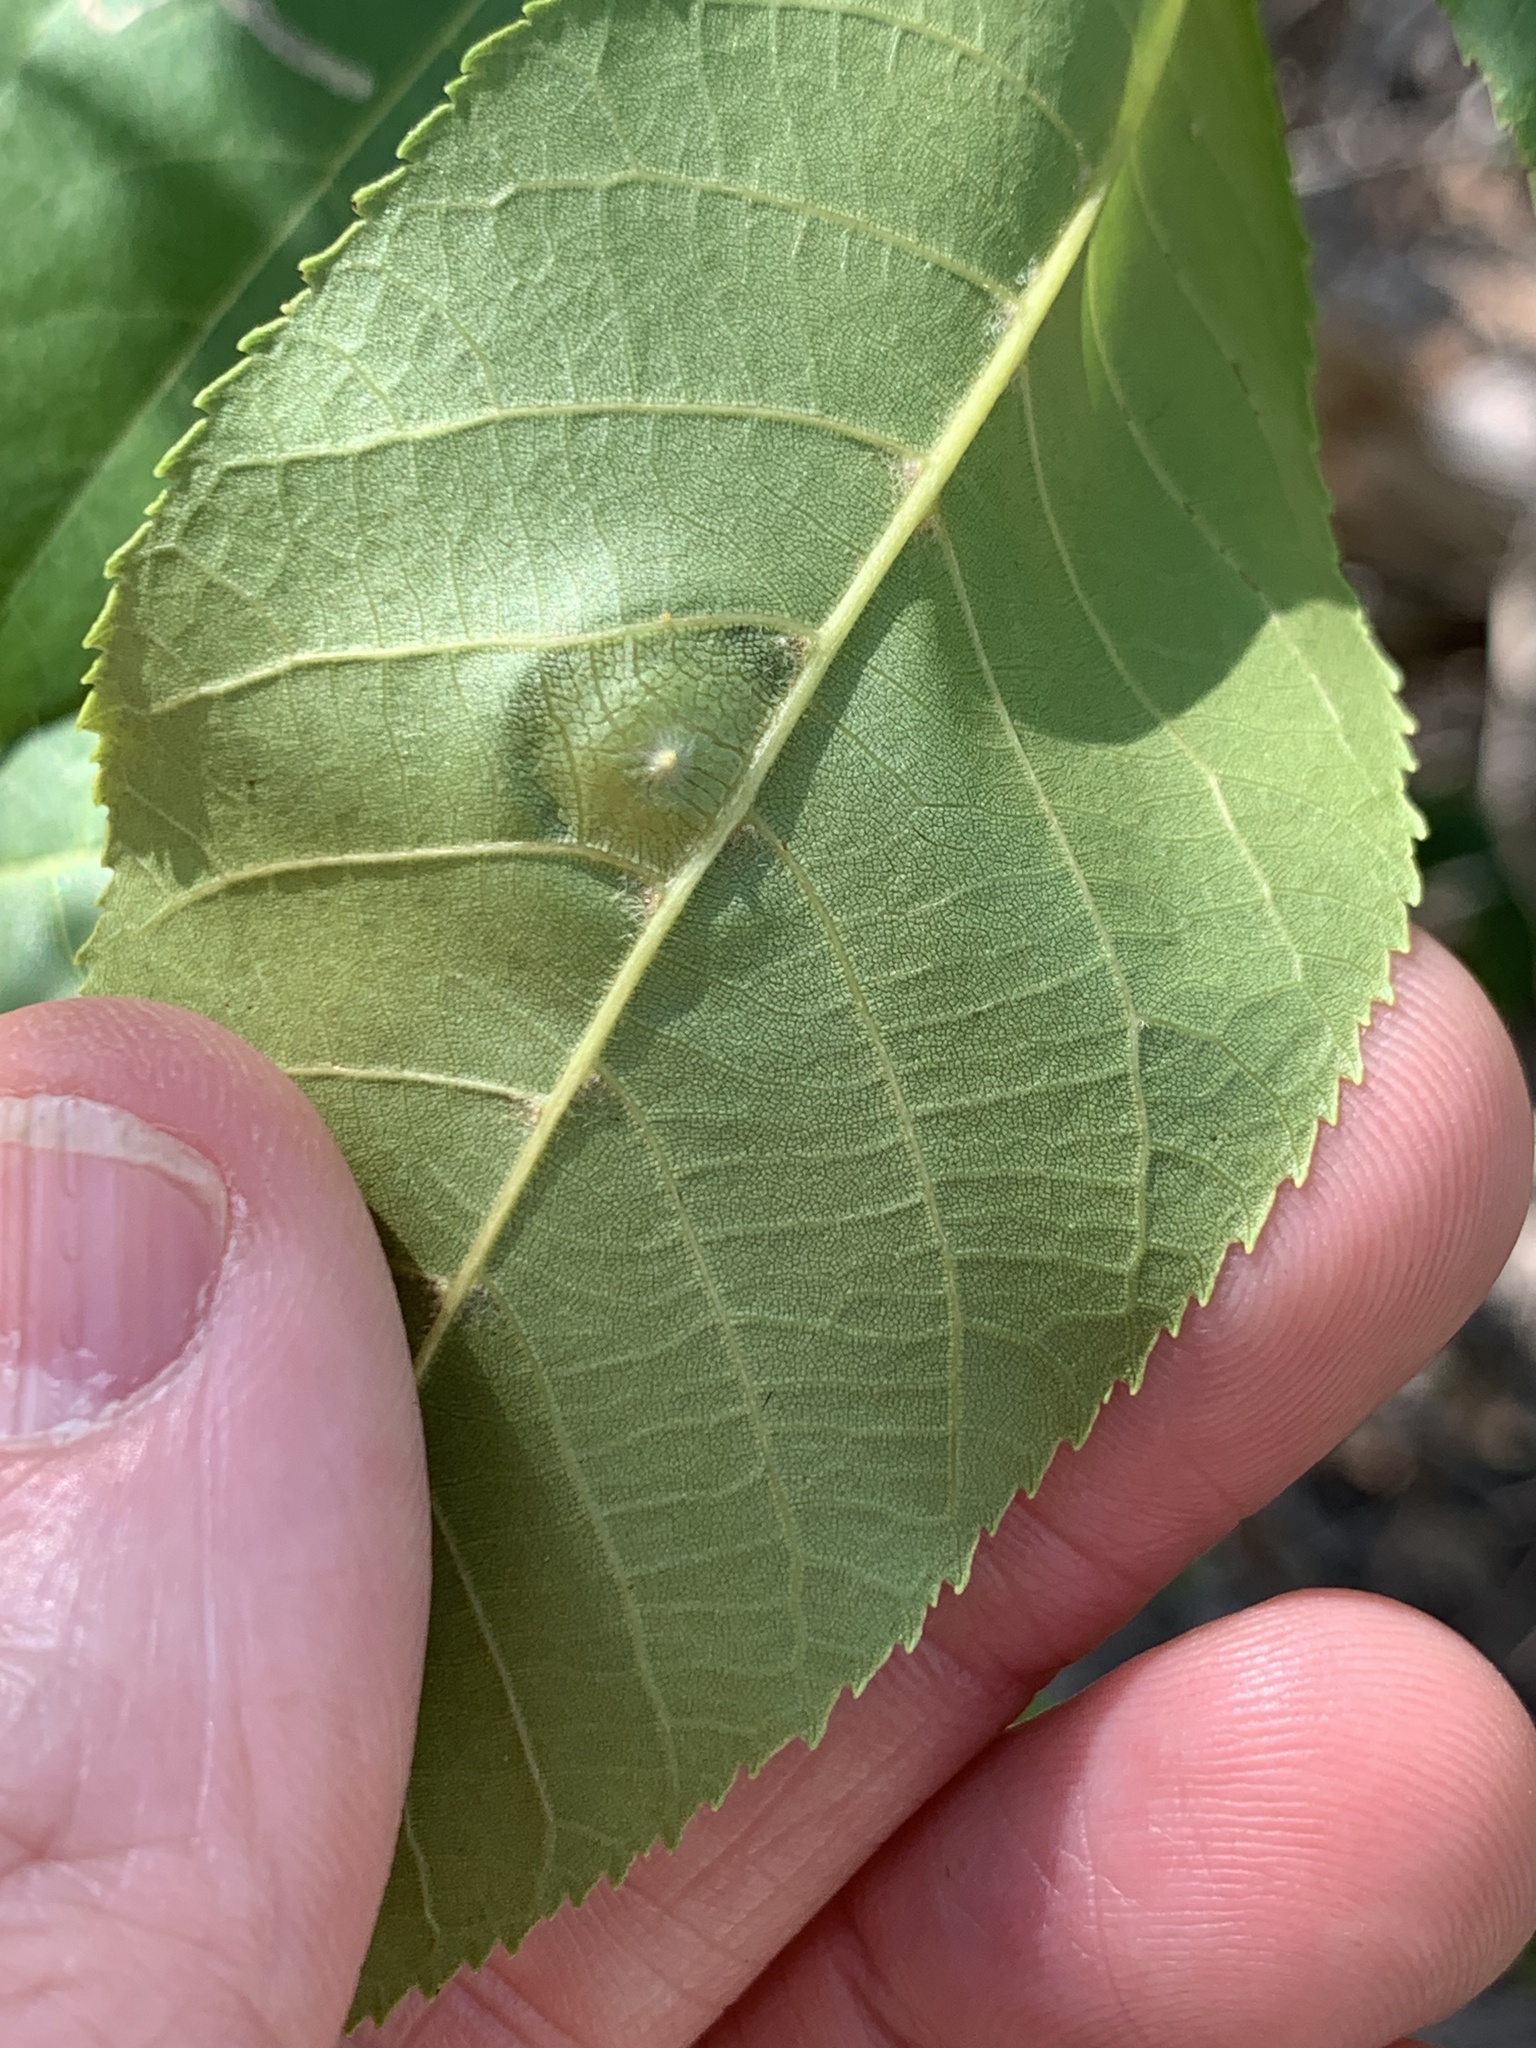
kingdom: Animalia
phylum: Arthropoda
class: Insecta
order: Hemiptera
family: Phylloxeridae
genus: Phylloxera
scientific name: Phylloxera caryaefoliae
